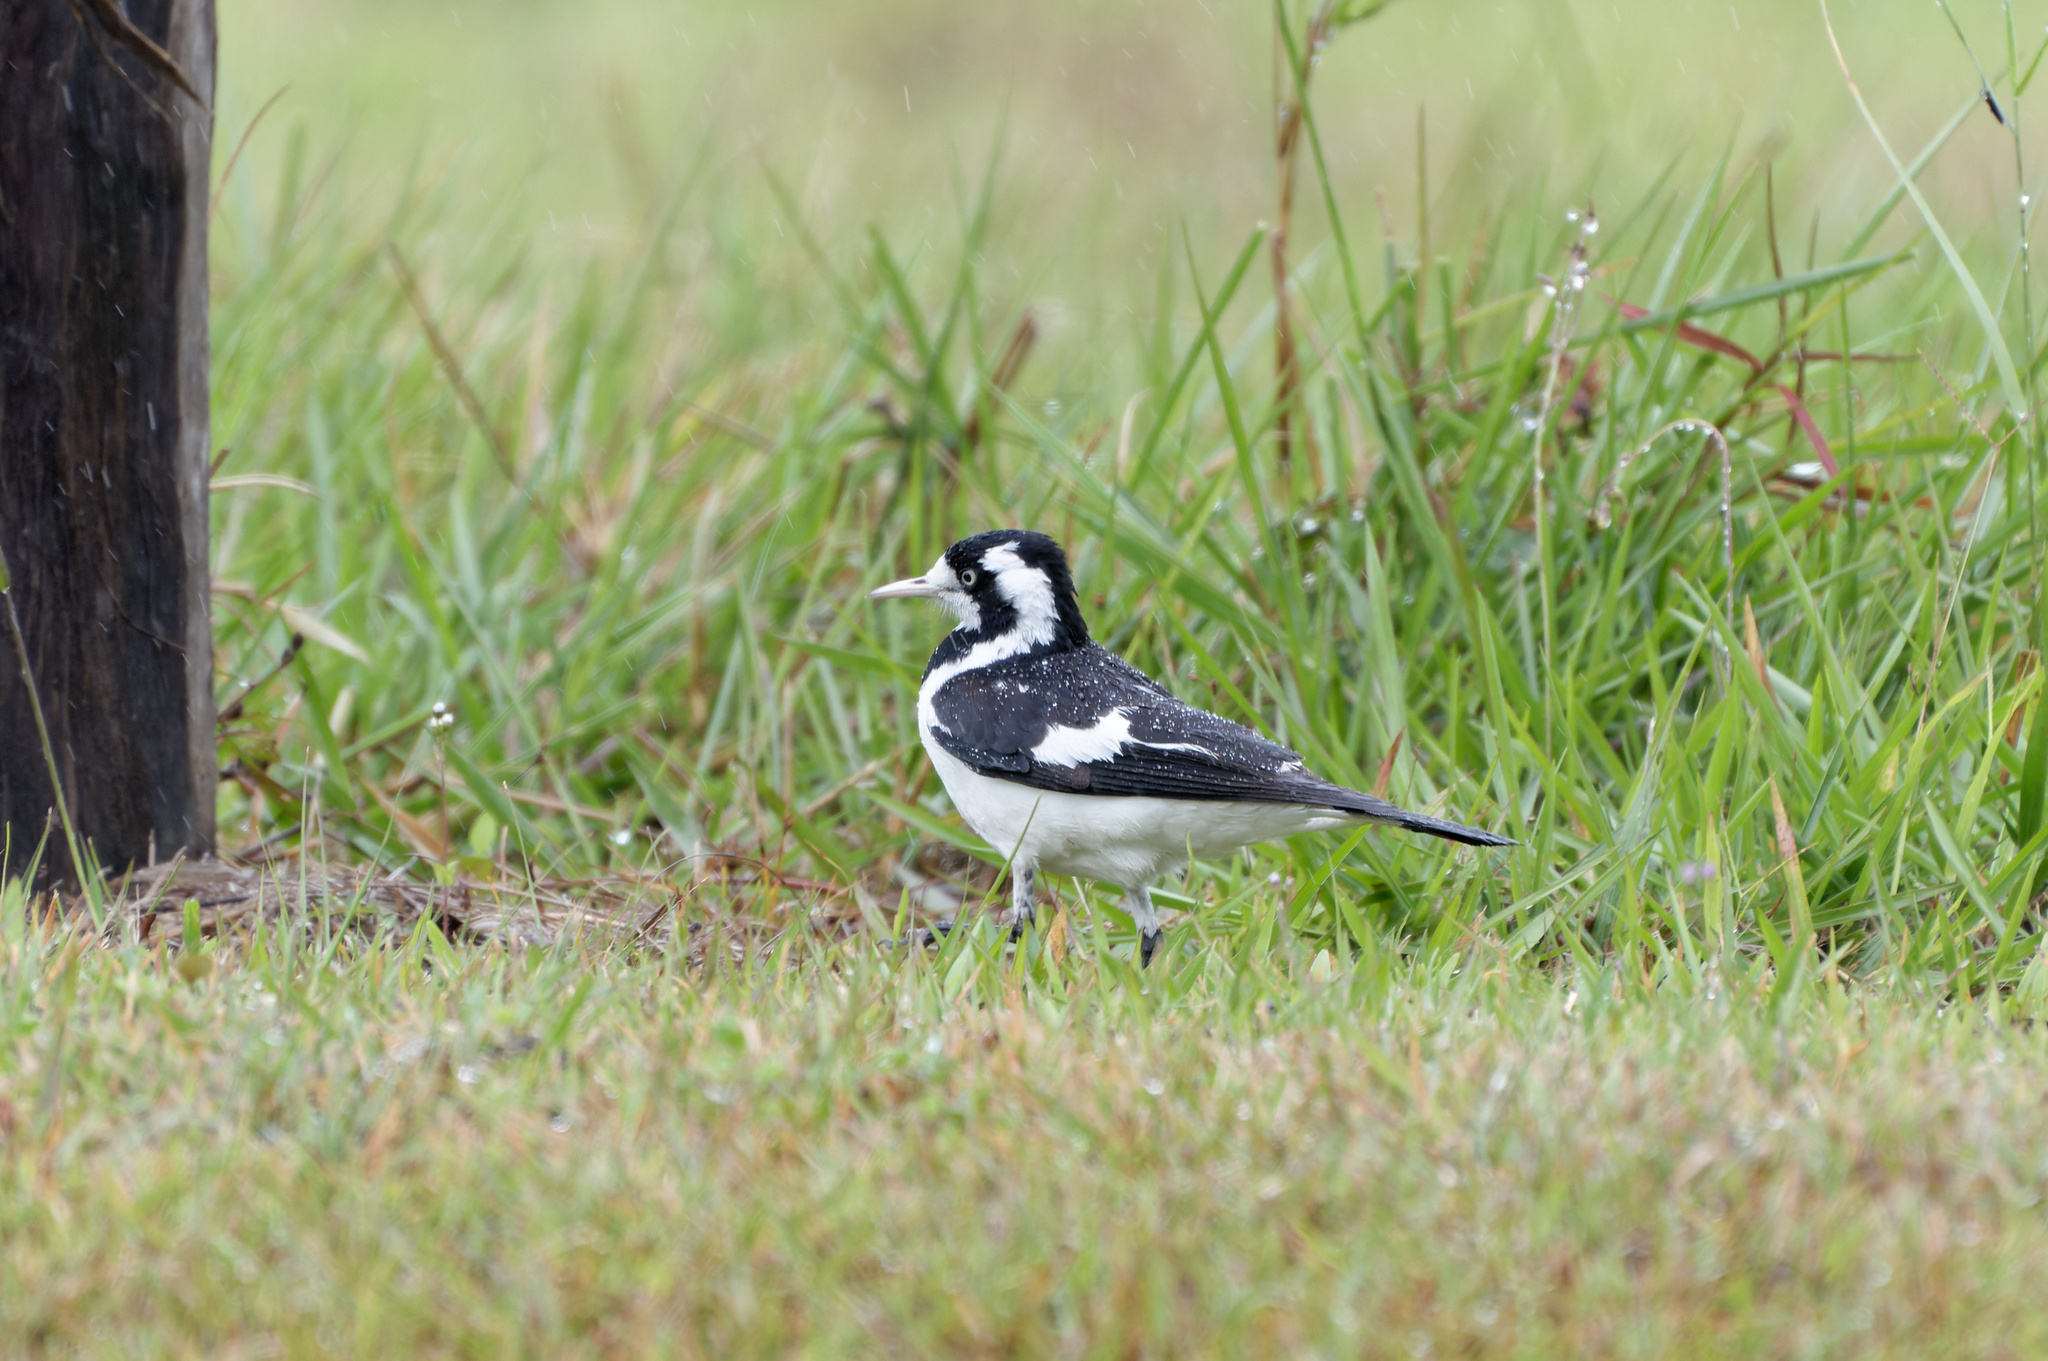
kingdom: Animalia
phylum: Chordata
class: Aves
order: Passeriformes
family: Monarchidae
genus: Grallina
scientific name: Grallina cyanoleuca
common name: Magpie-lark
